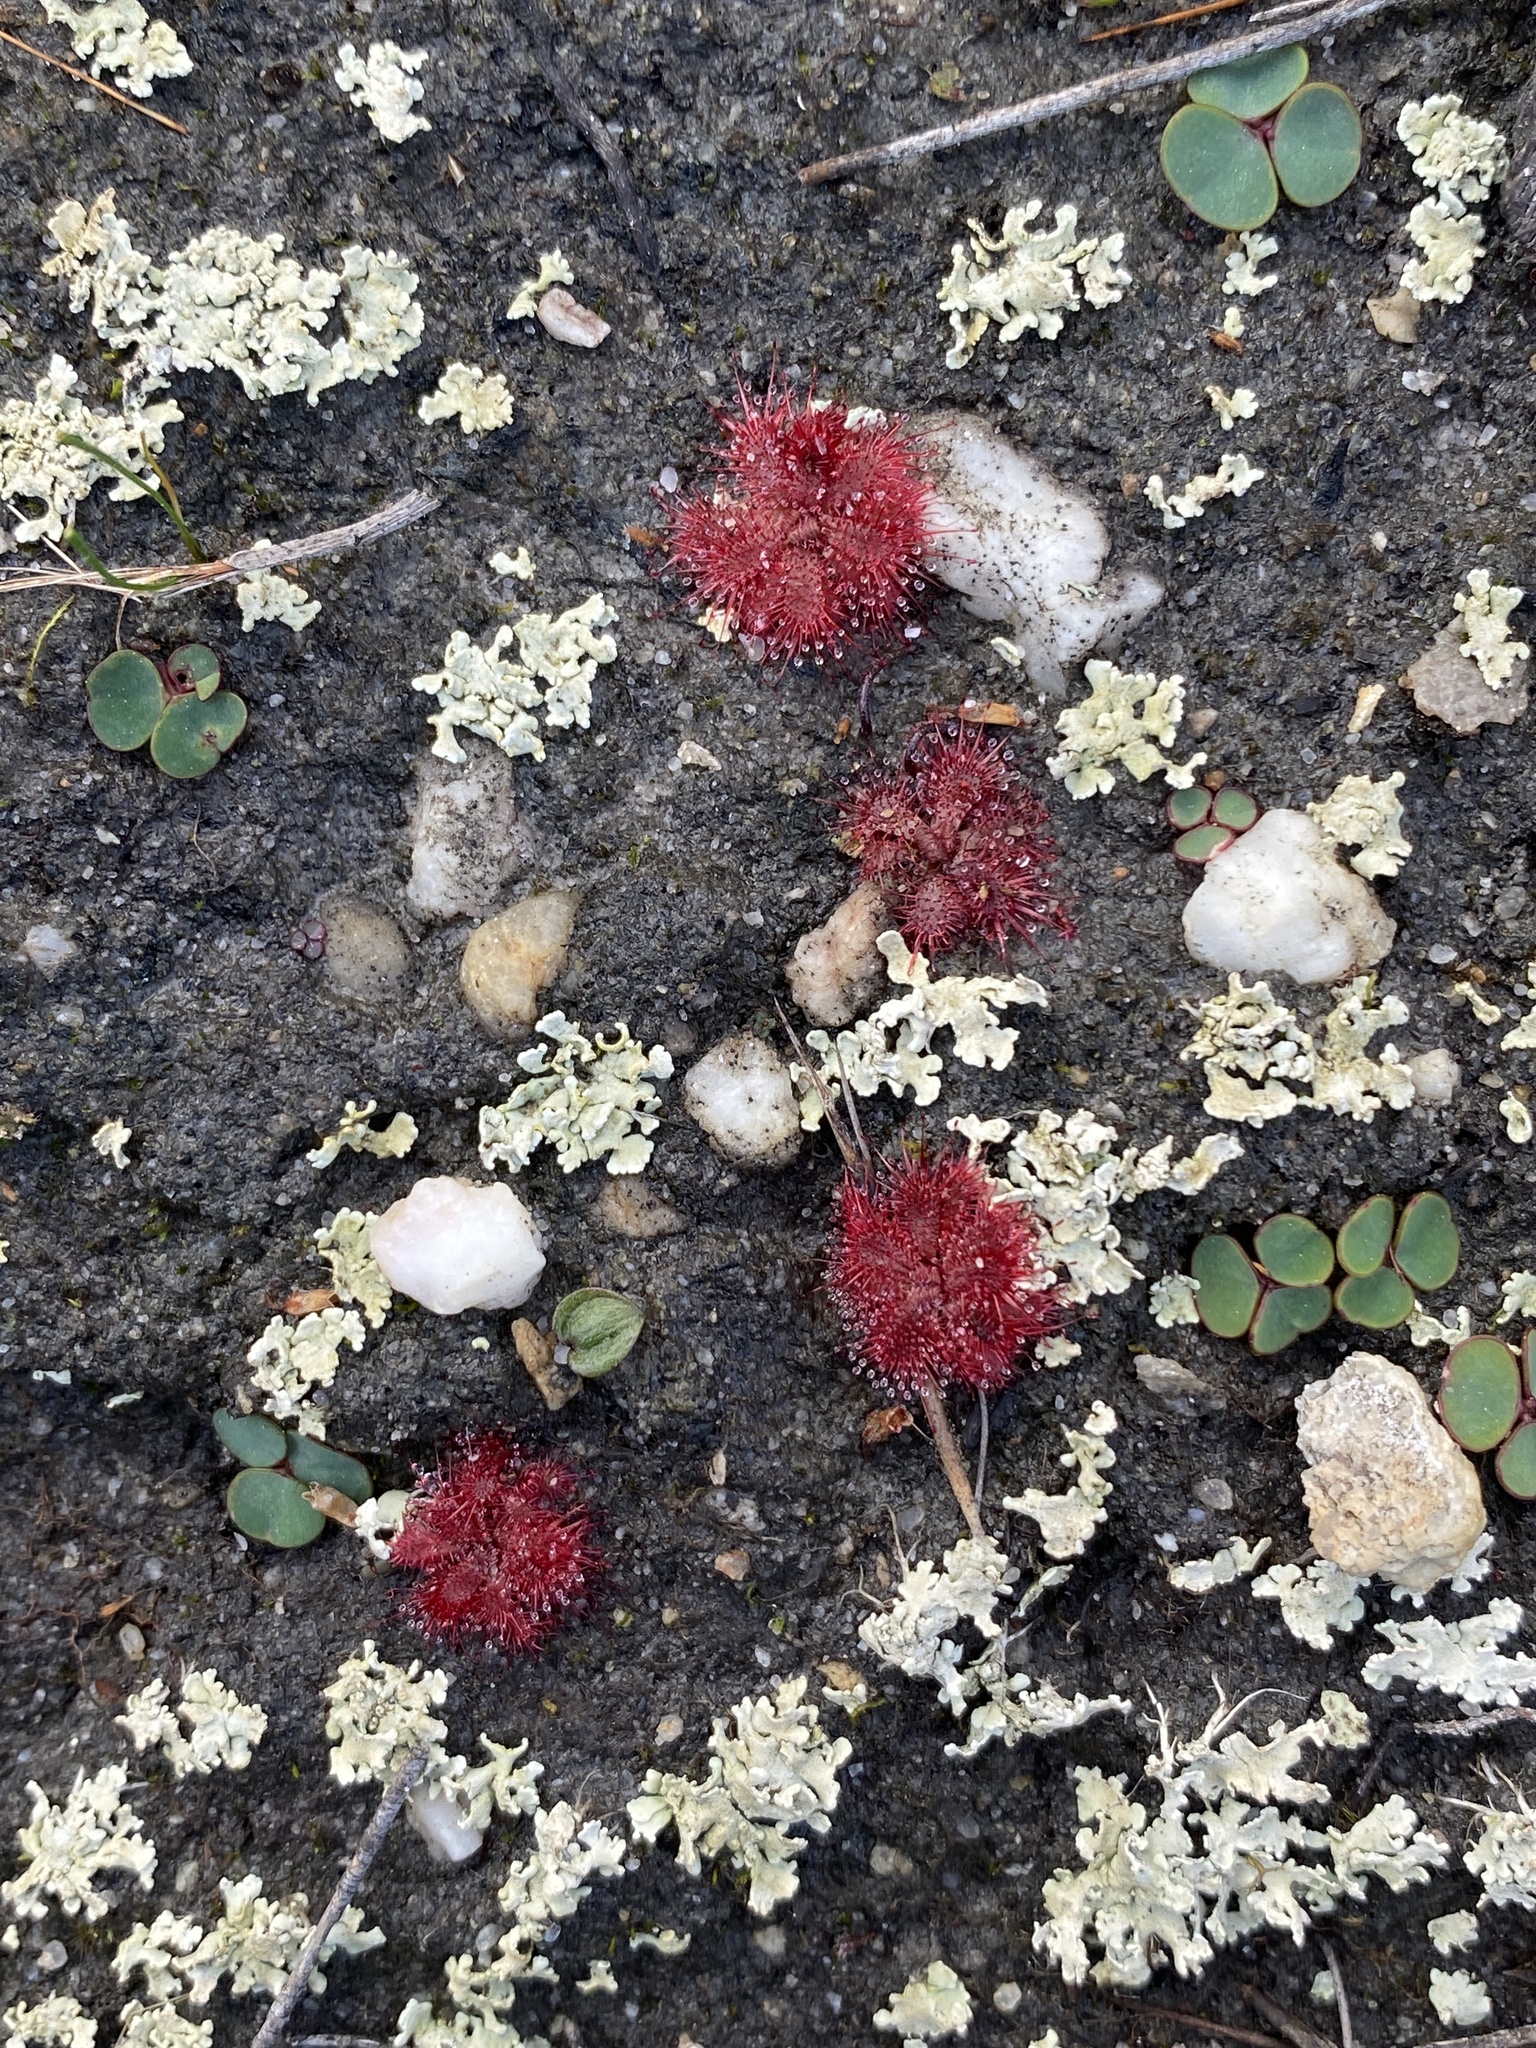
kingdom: Plantae
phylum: Tracheophyta
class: Magnoliopsida
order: Caryophyllales
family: Droseraceae
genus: Drosera
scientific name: Drosera trinervia
